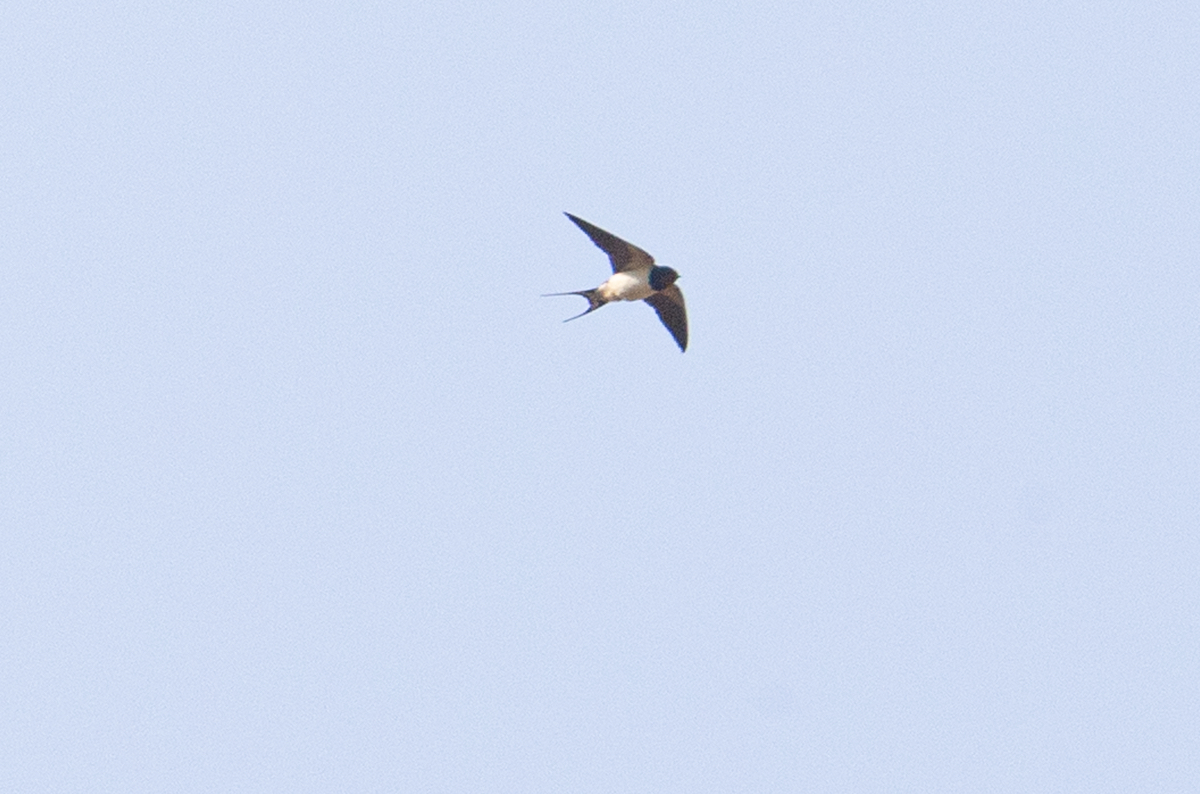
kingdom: Animalia
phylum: Chordata
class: Aves
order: Passeriformes
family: Hirundinidae
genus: Hirundo
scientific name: Hirundo rustica
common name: Barn swallow
